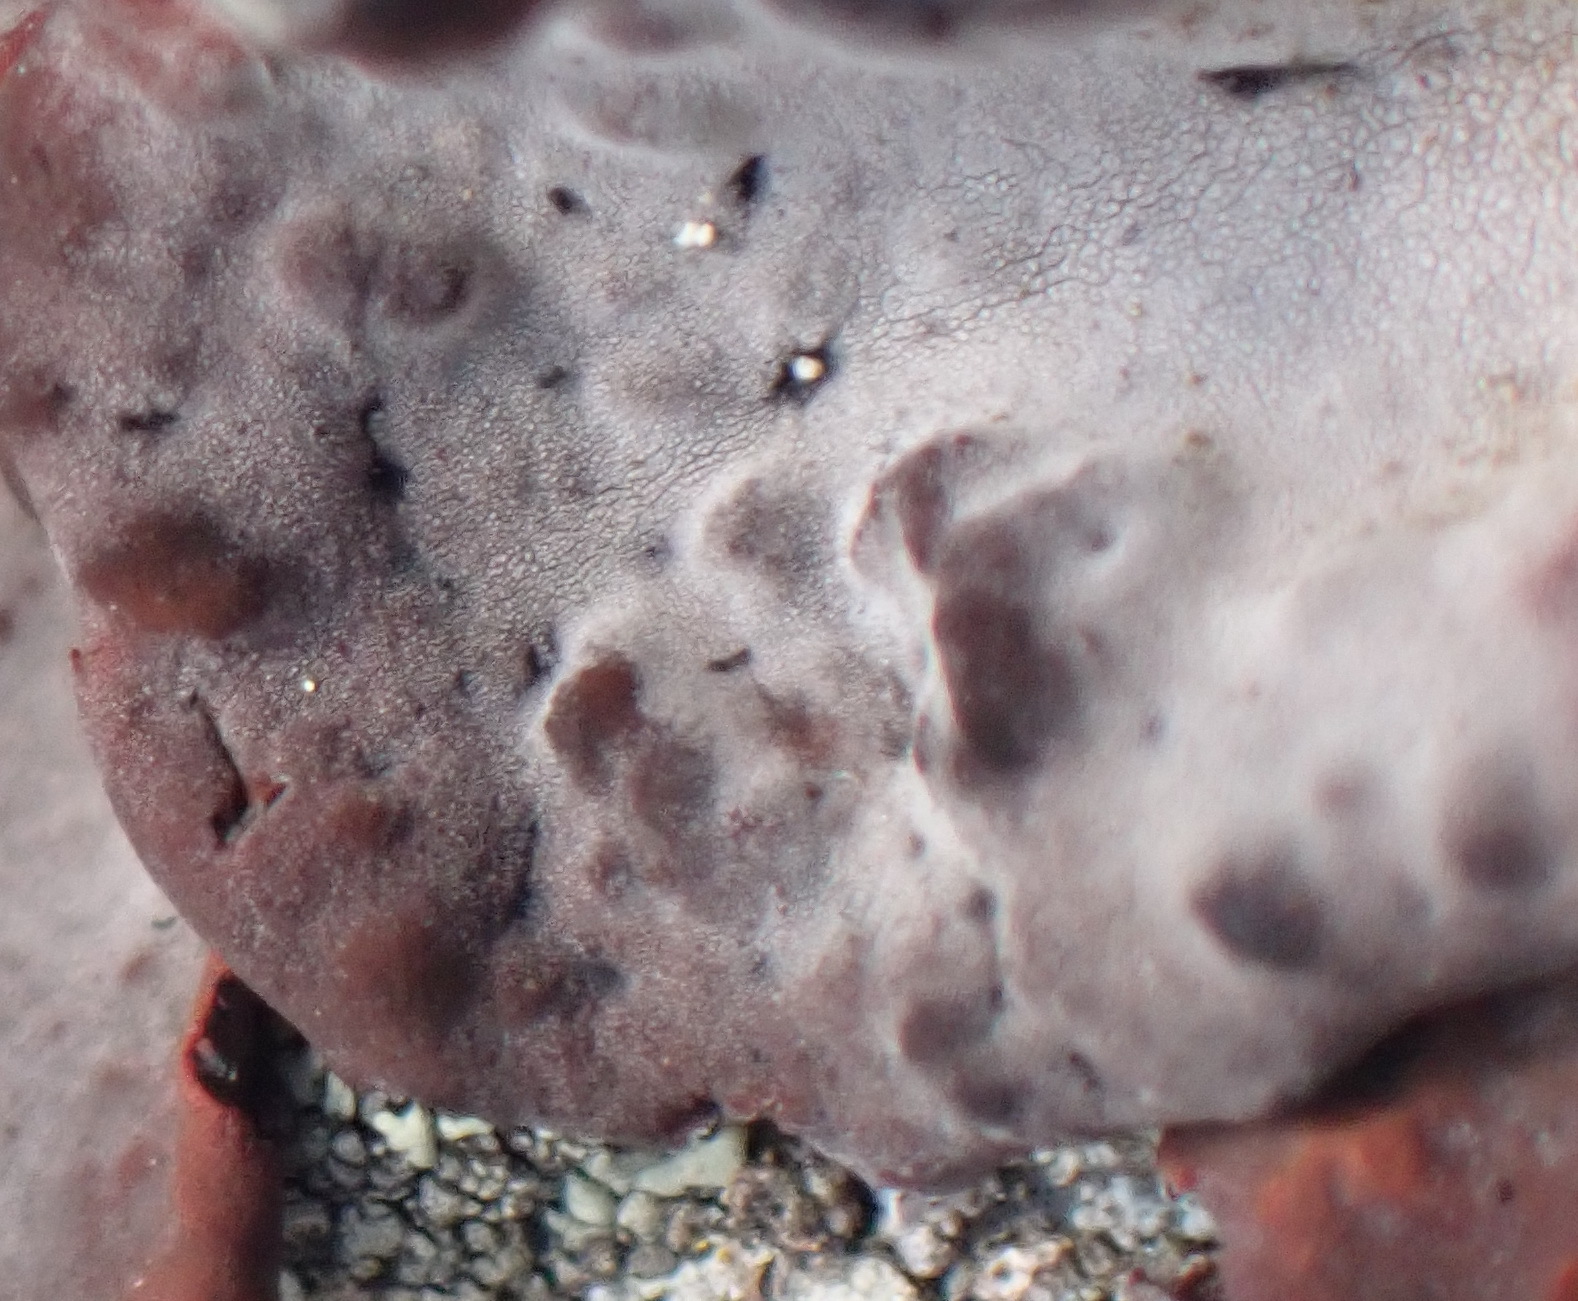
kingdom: Fungi
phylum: Ascomycota
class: Lecanoromycetes
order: Umbilicariales
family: Umbilicariaceae
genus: Lasallia
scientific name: Lasallia rubiginosa
